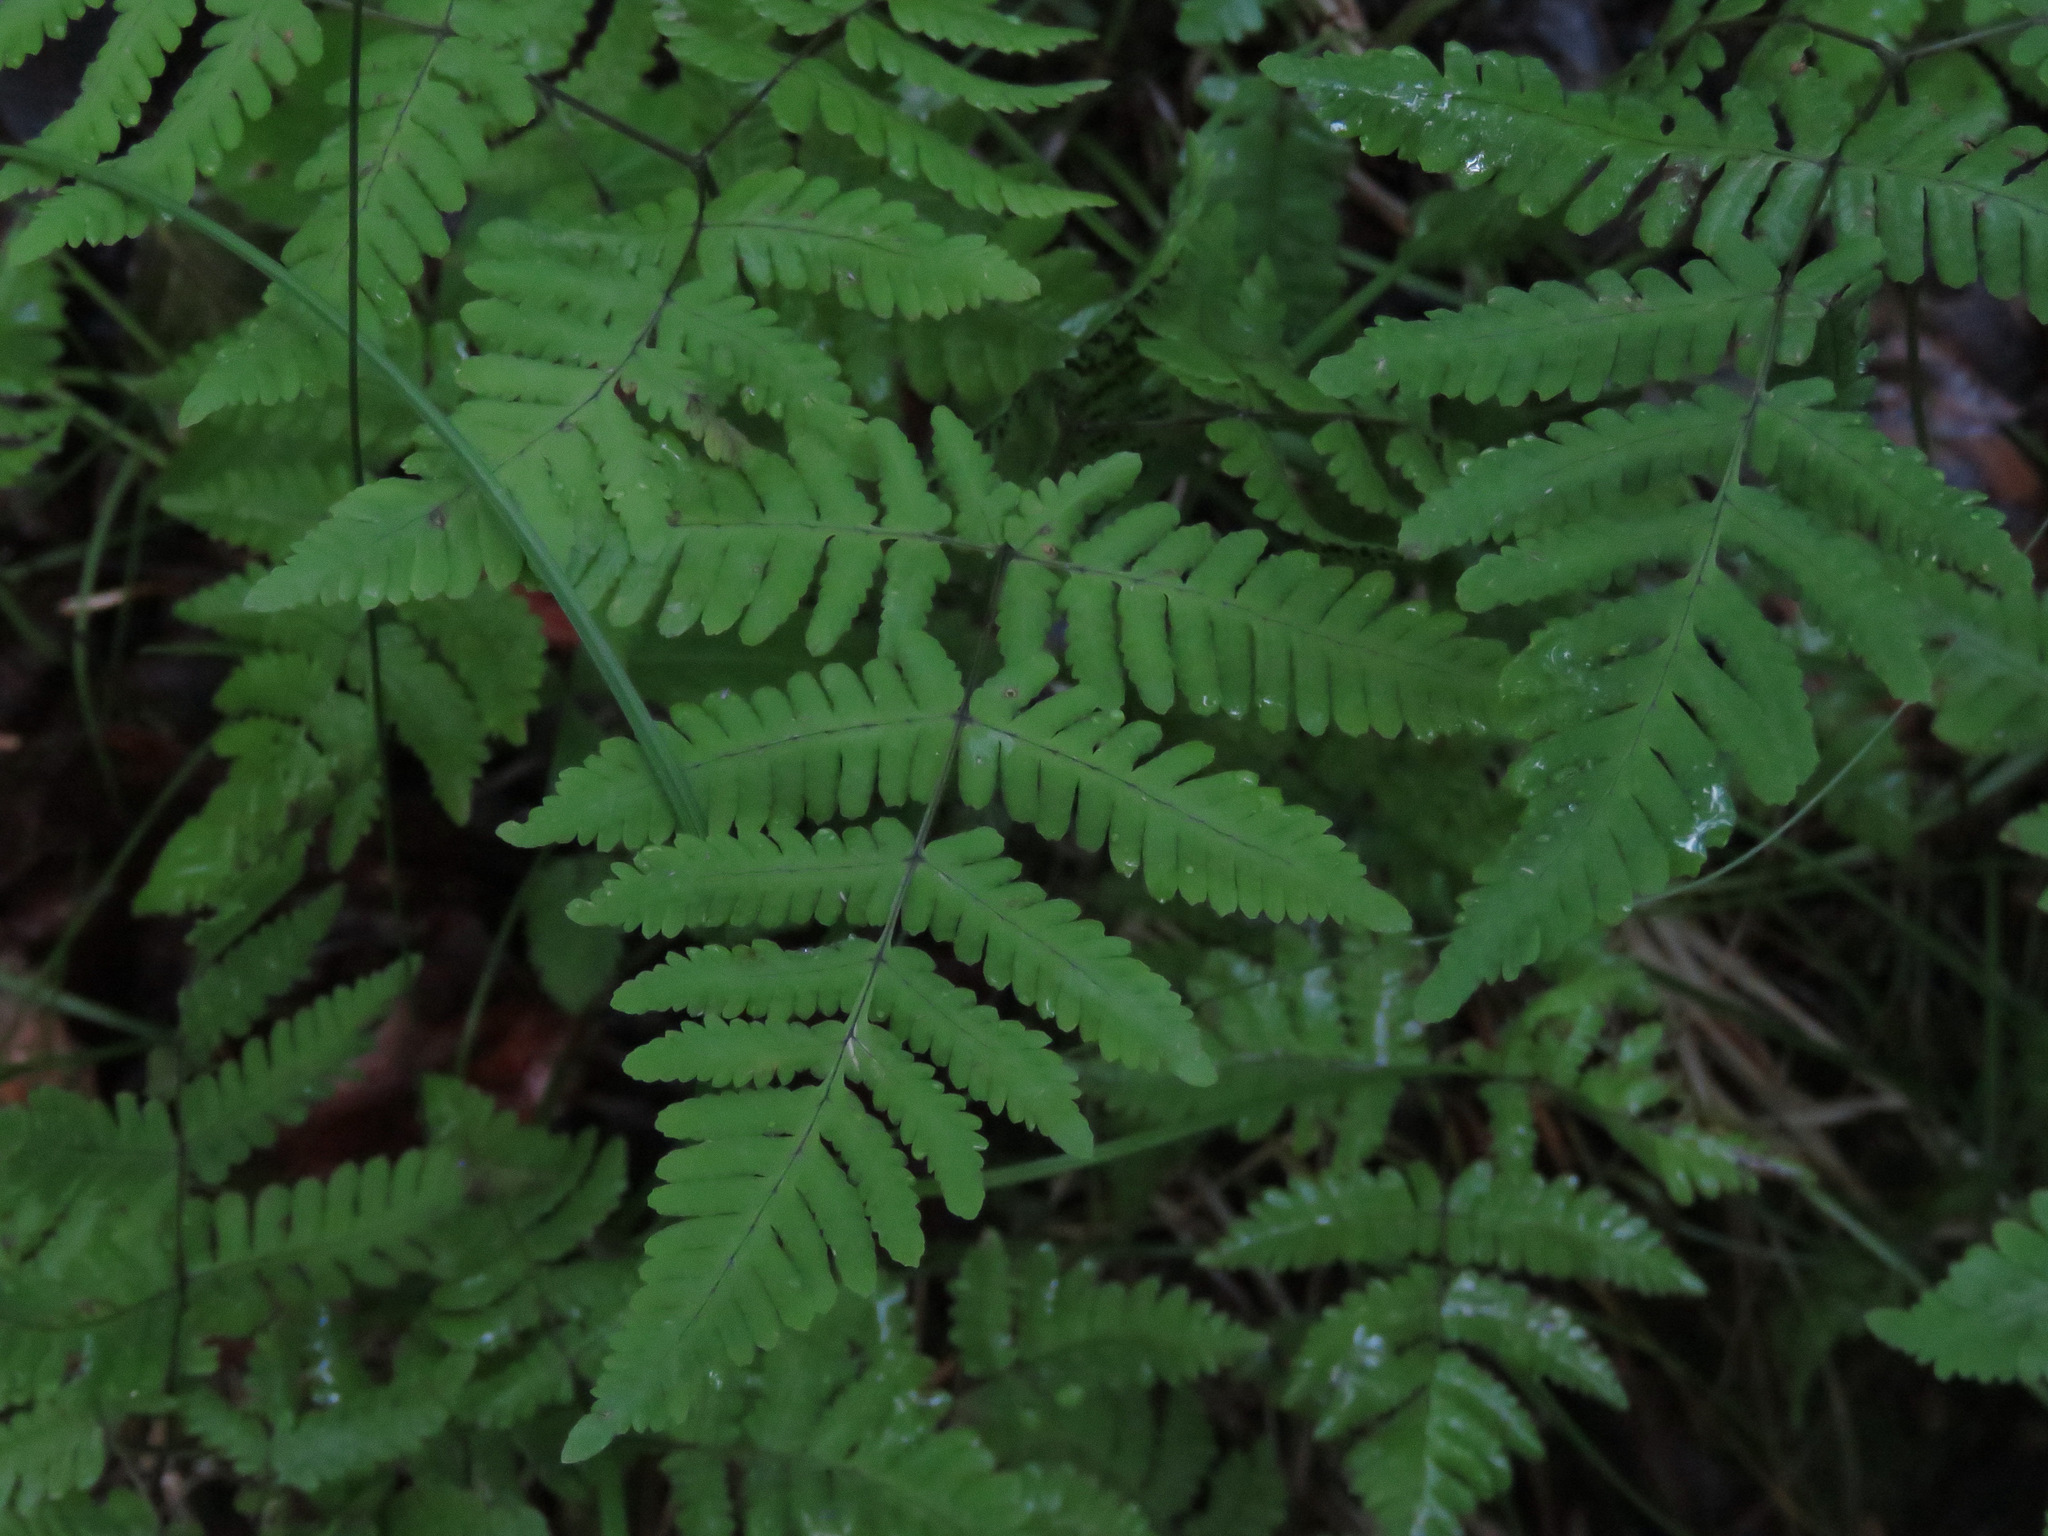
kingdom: Plantae
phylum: Tracheophyta
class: Polypodiopsida
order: Polypodiales
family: Cystopteridaceae
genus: Gymnocarpium
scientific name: Gymnocarpium dryopteris
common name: Oak fern
